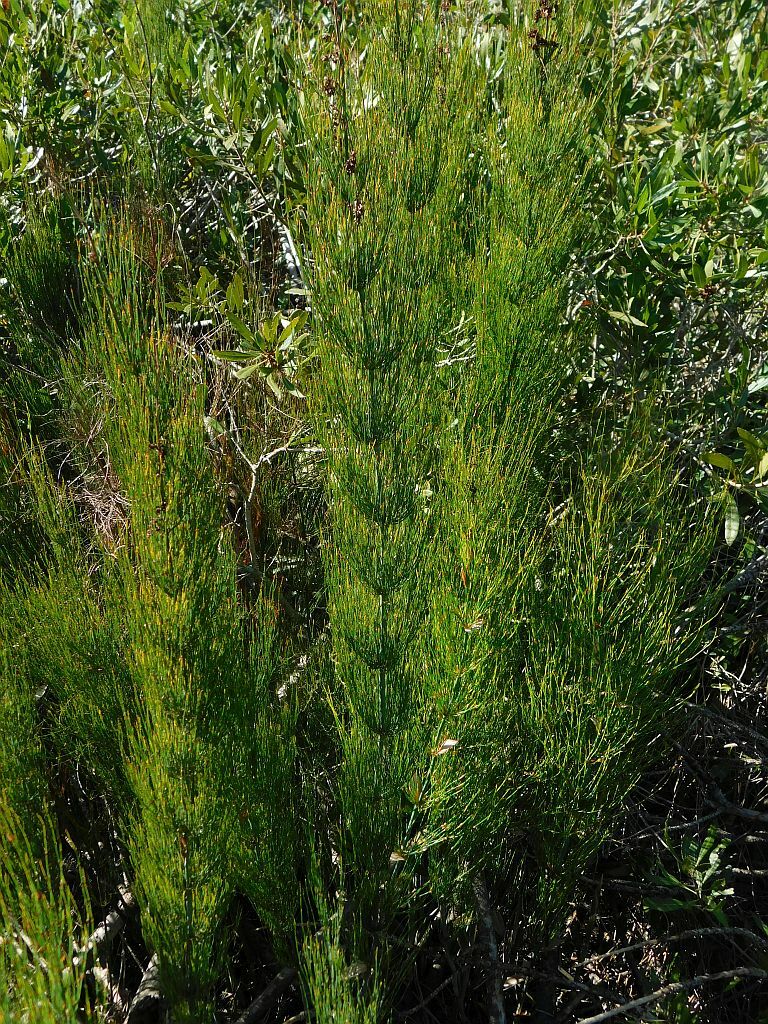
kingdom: Plantae
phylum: Tracheophyta
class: Liliopsida
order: Poales
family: Restionaceae
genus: Elegia
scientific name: Elegia capensis
